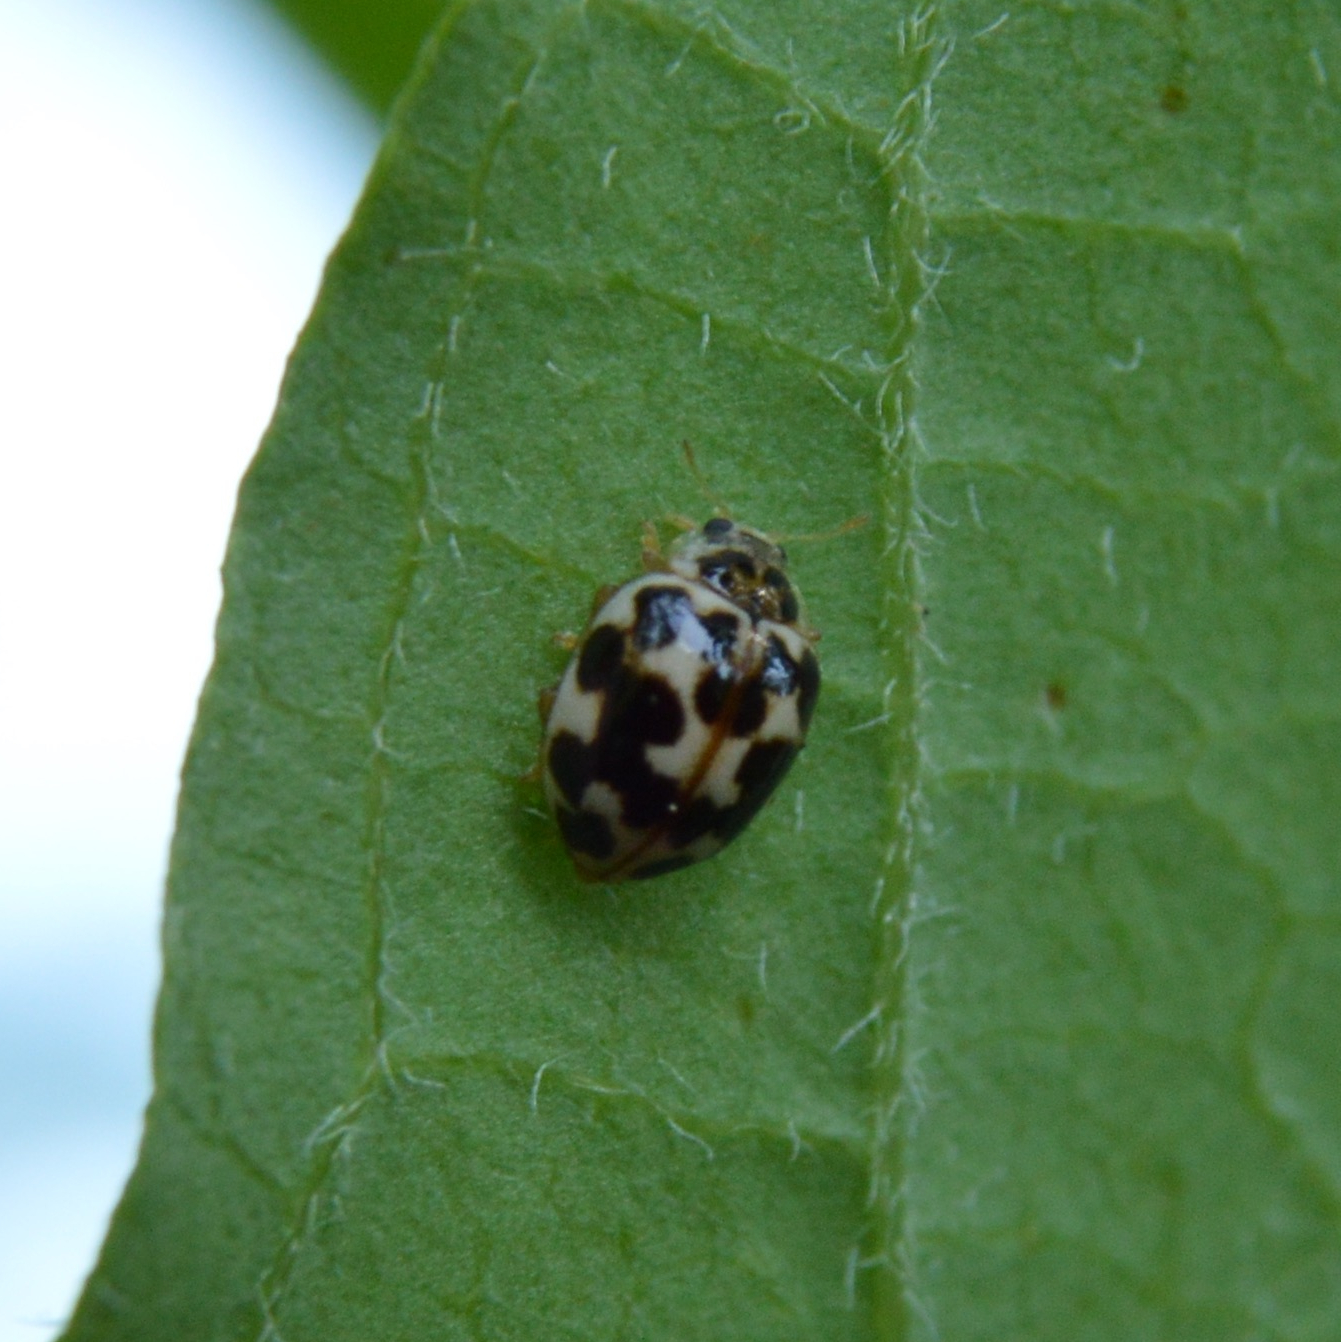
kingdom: Animalia
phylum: Arthropoda
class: Insecta
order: Coleoptera
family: Coccinellidae
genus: Psyllobora
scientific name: Psyllobora vigintimaculata
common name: Ladybird beetle
